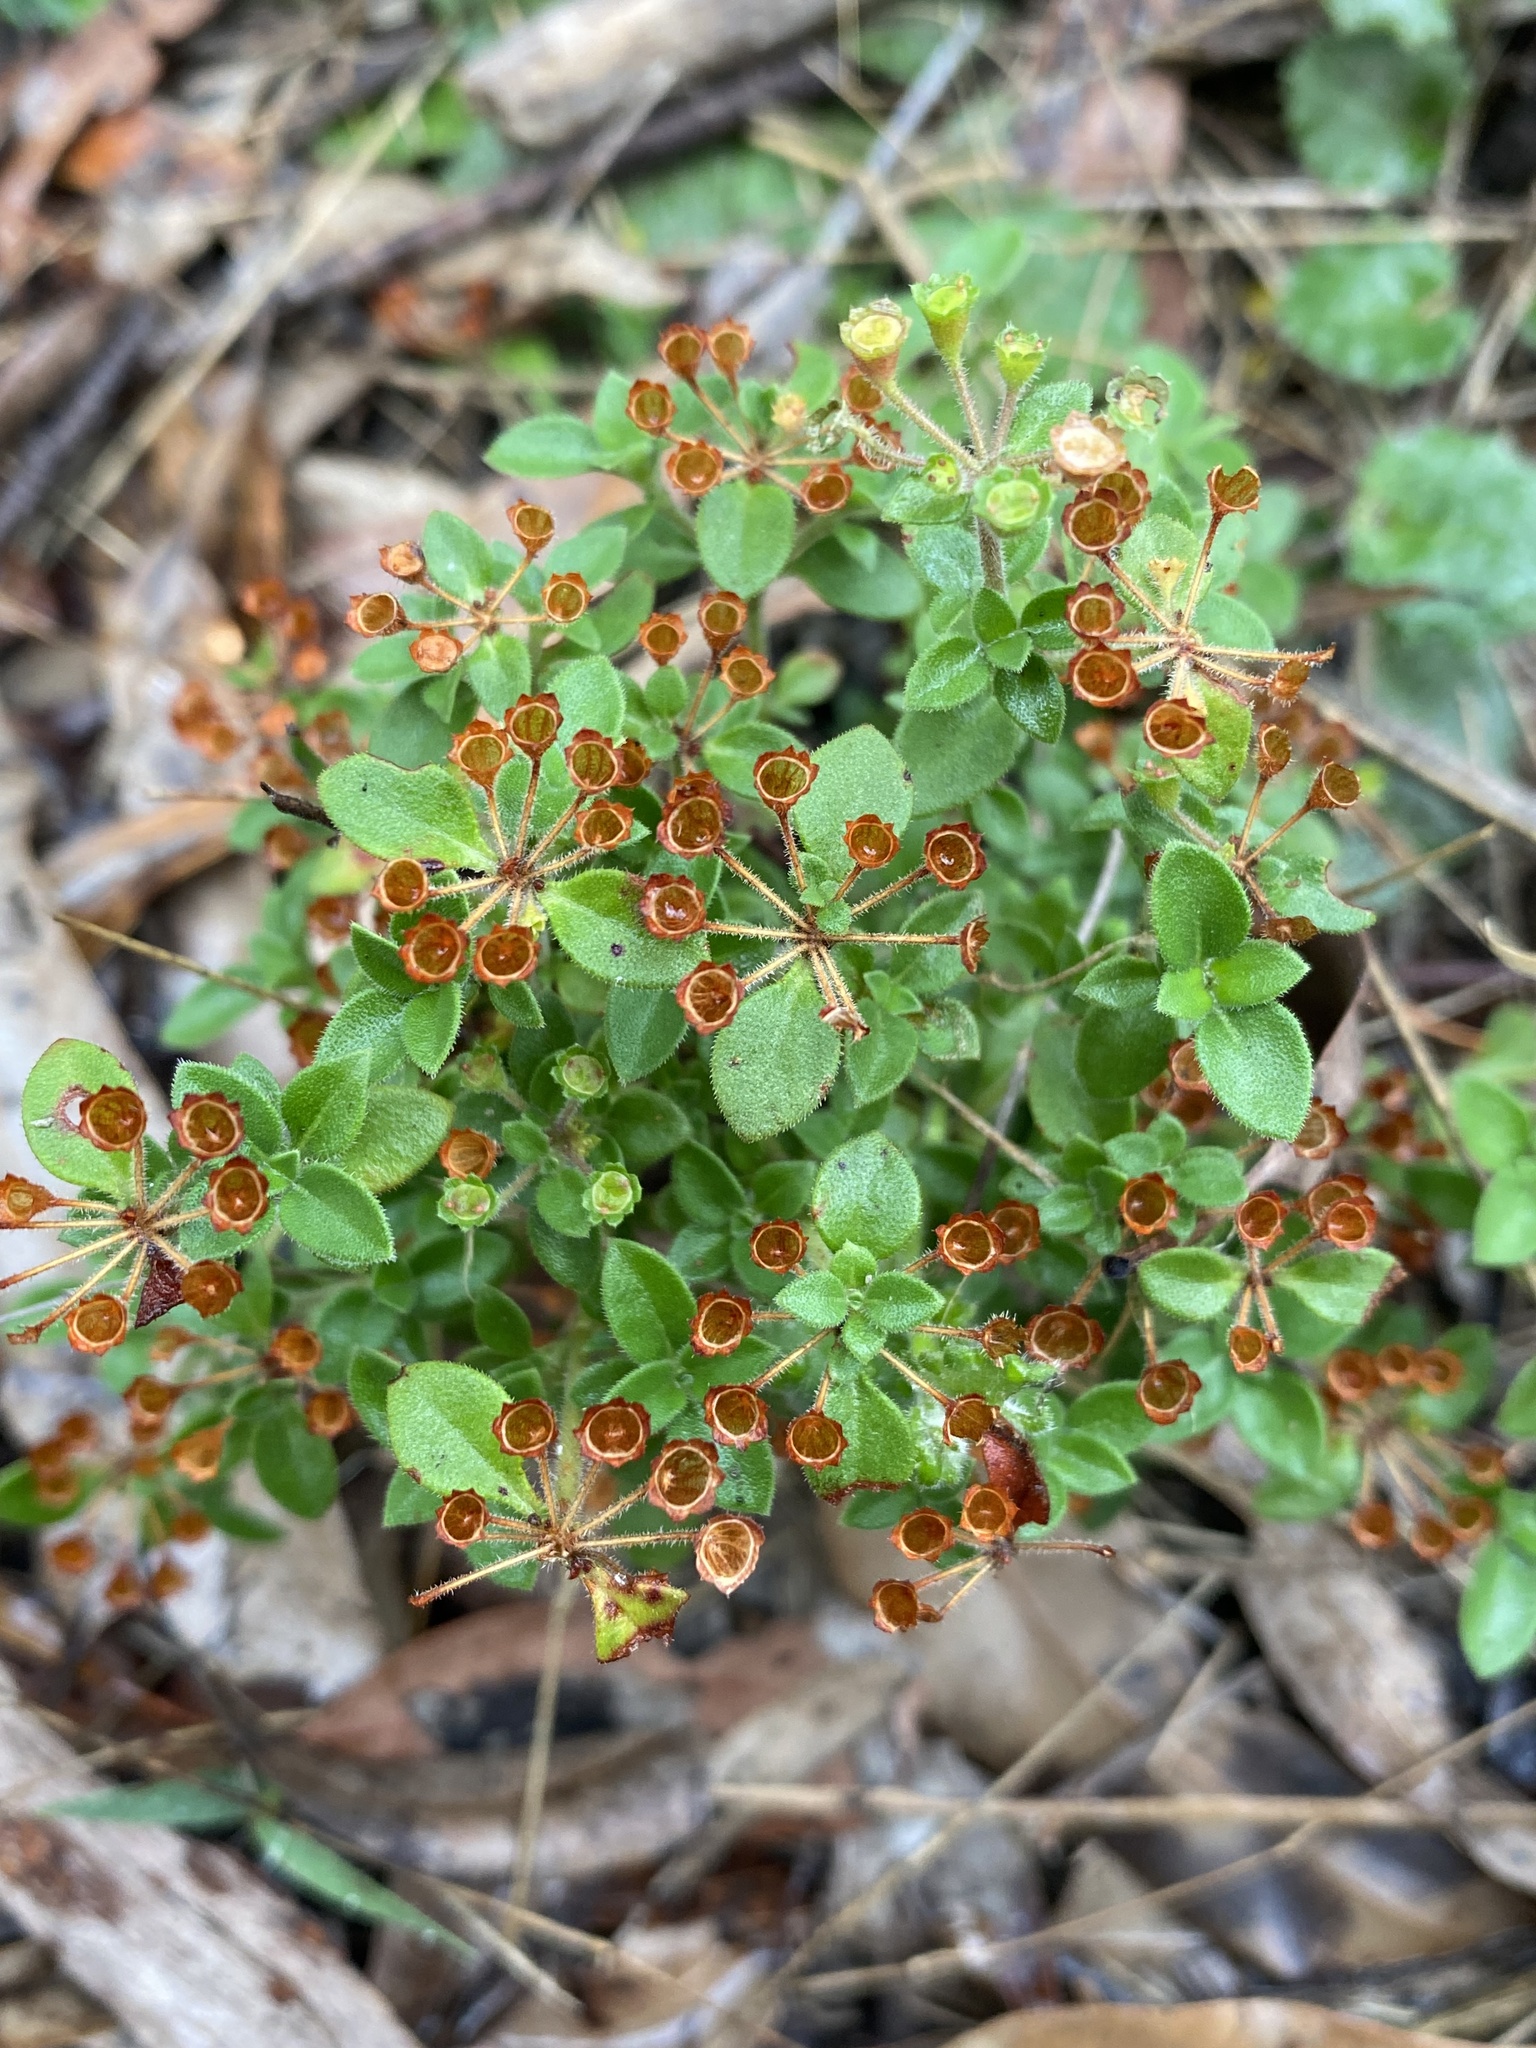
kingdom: Plantae
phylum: Tracheophyta
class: Magnoliopsida
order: Gentianales
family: Rubiaceae
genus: Pomax
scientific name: Pomax umbellata
